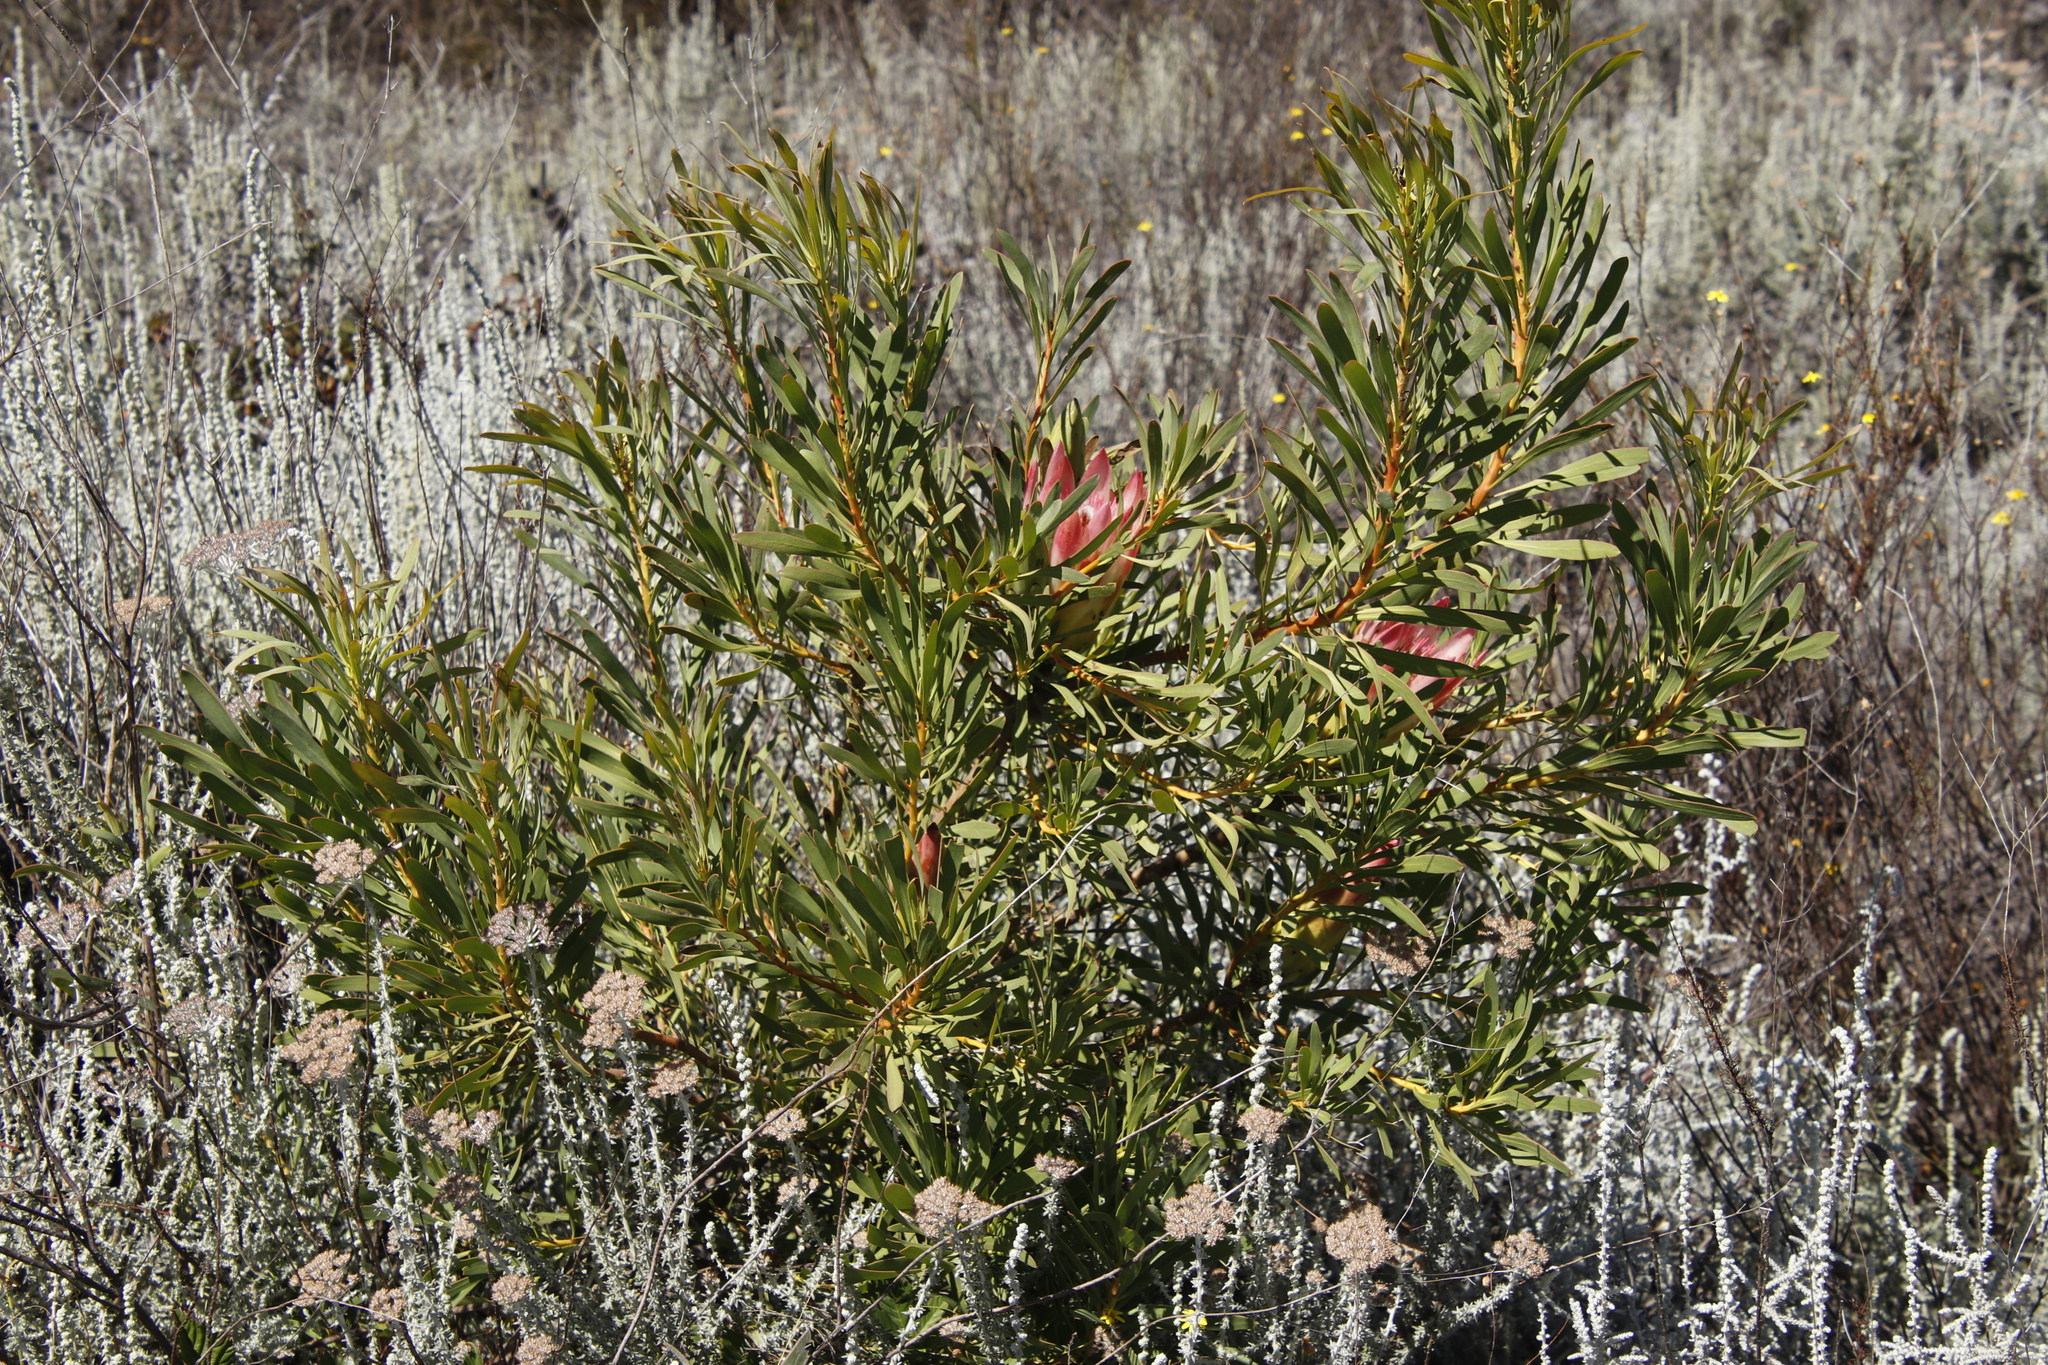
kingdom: Plantae
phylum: Tracheophyta
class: Magnoliopsida
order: Proteales
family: Proteaceae
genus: Protea
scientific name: Protea repens
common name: Sugarbush
